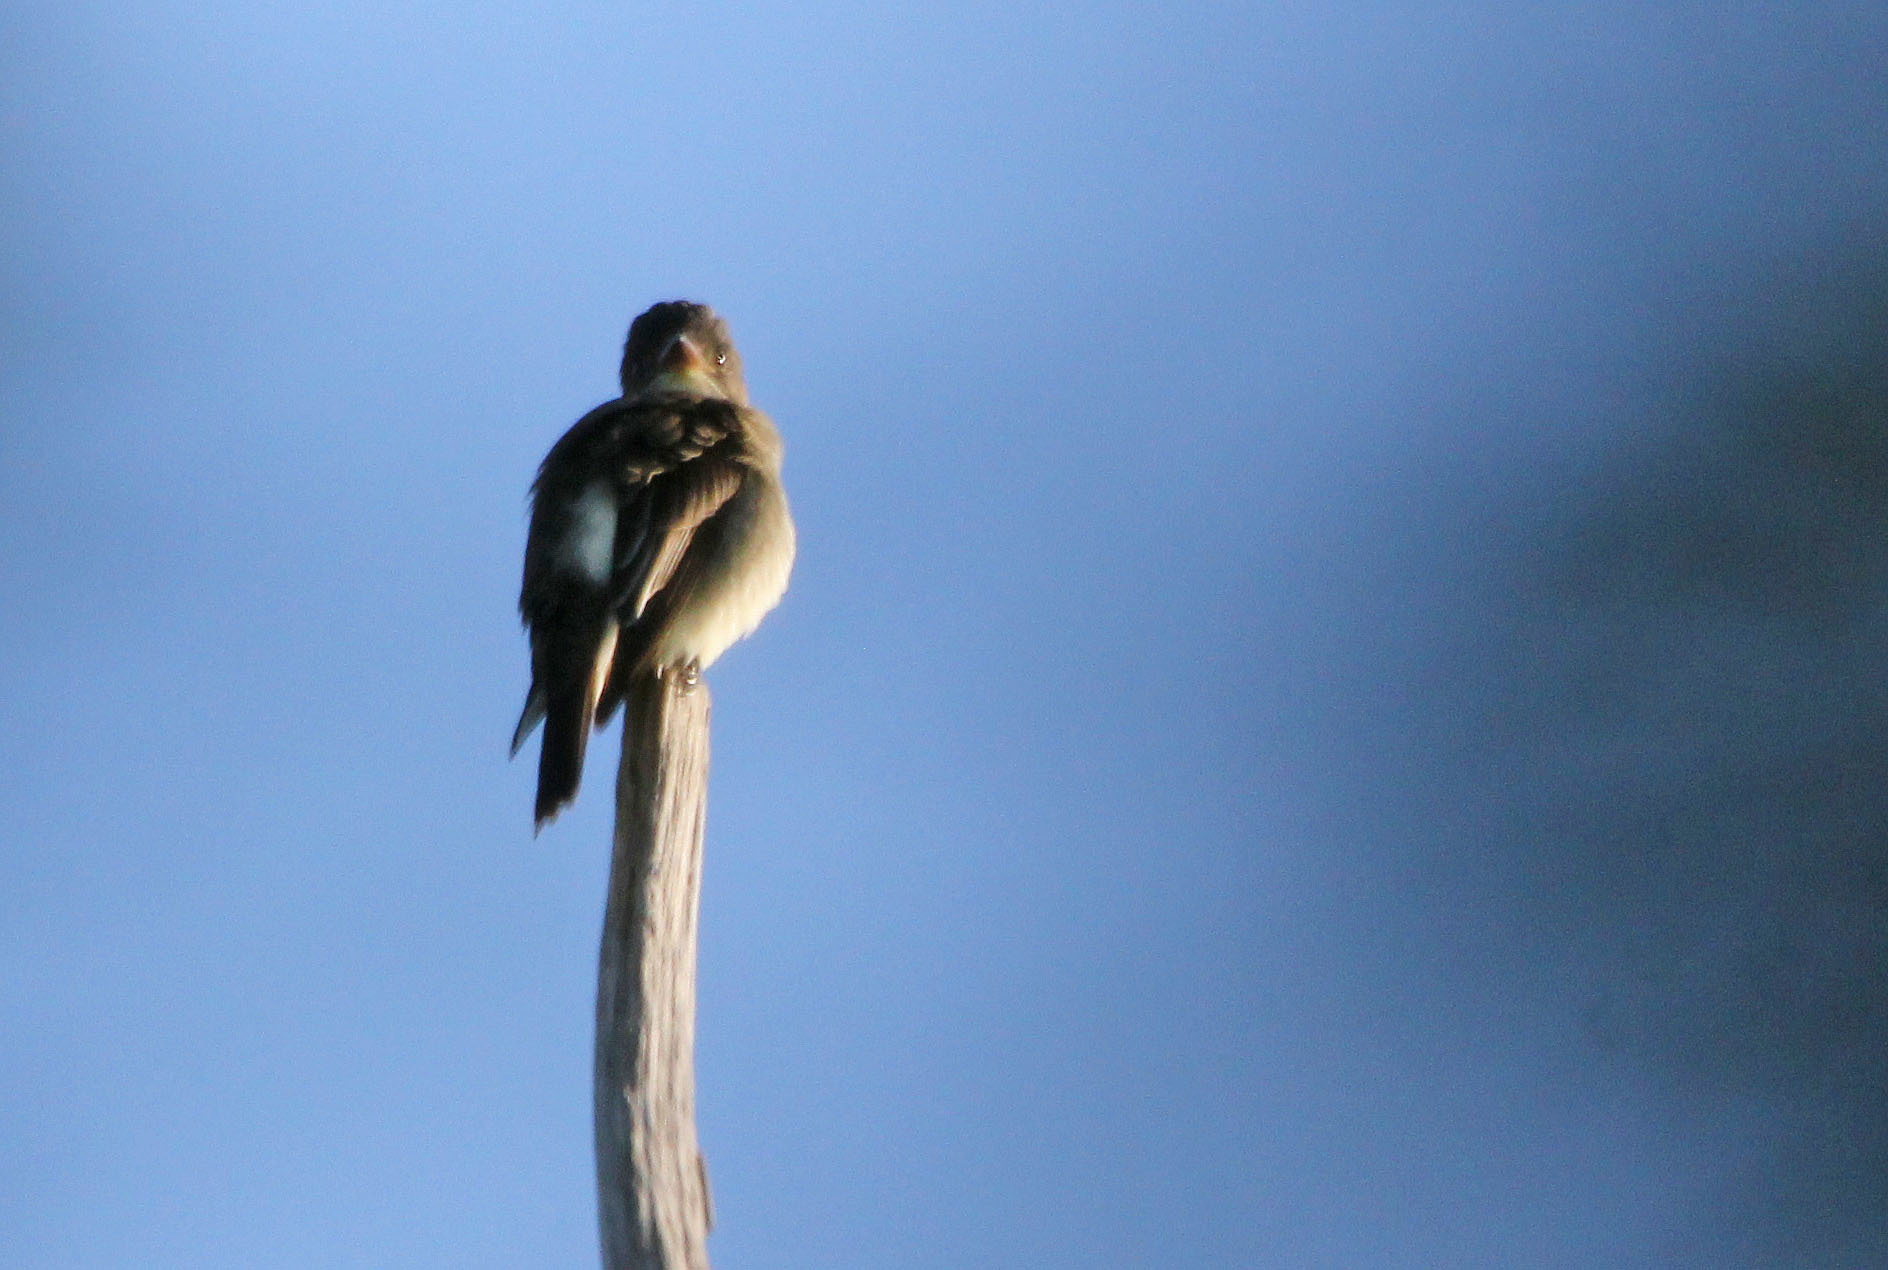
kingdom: Animalia
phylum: Chordata
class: Aves
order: Passeriformes
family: Tyrannidae
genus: Contopus
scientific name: Contopus cooperi
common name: Olive-sided flycatcher
